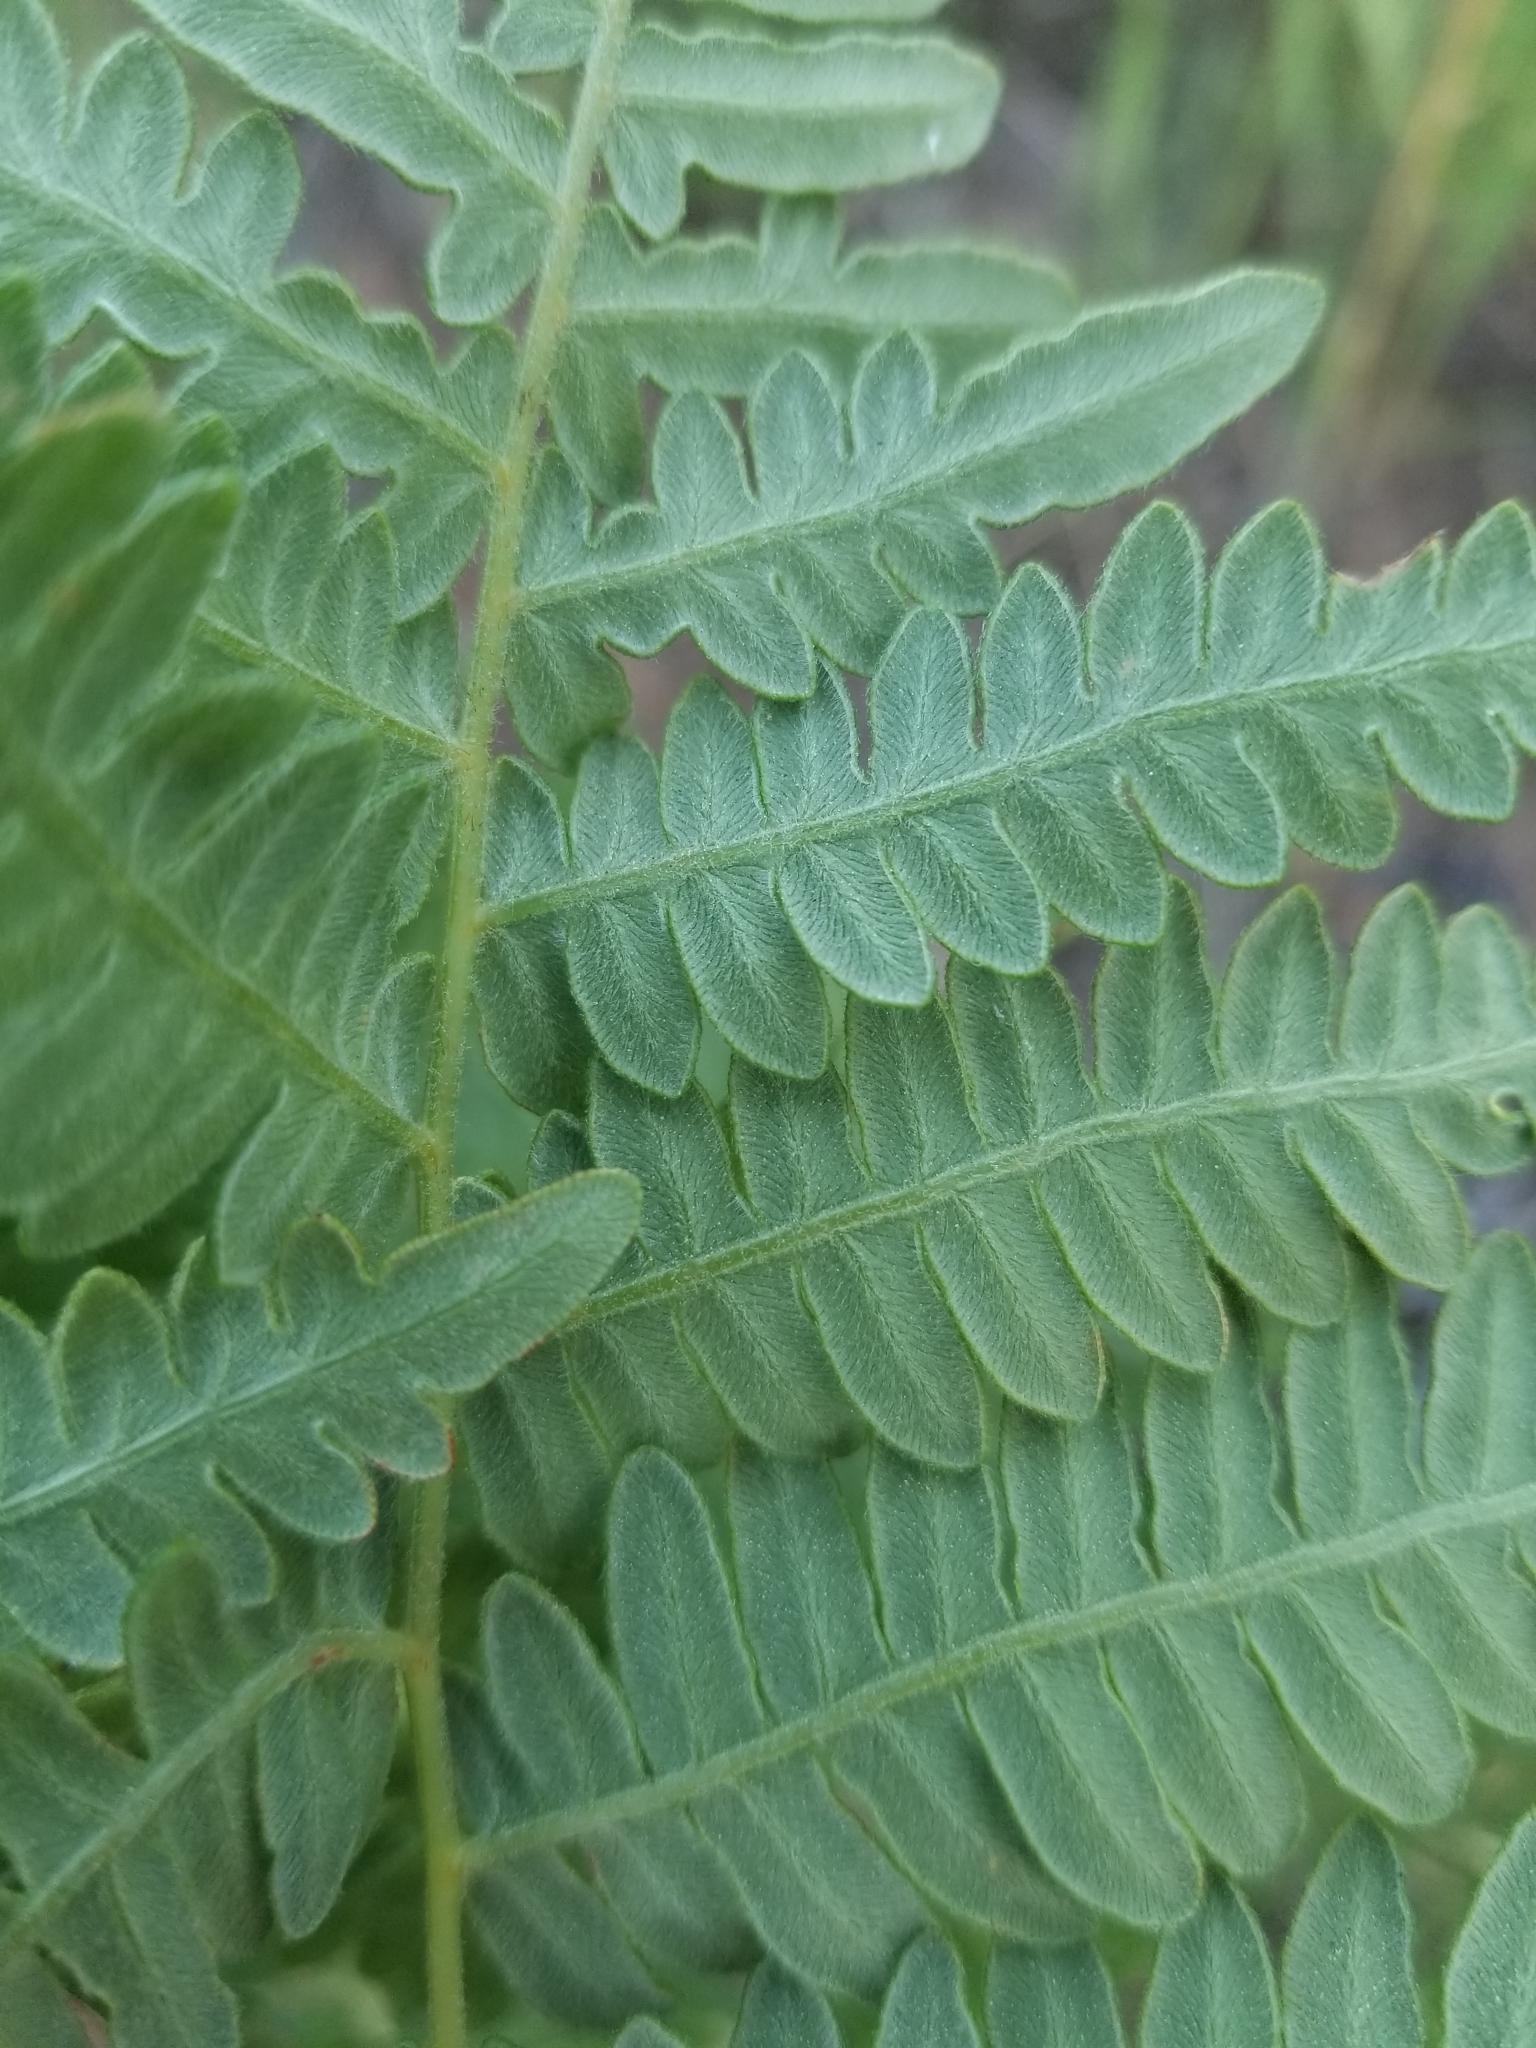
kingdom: Plantae
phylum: Tracheophyta
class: Polypodiopsida
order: Polypodiales
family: Dennstaedtiaceae
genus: Pteridium
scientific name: Pteridium aquilinum
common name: Bracken
